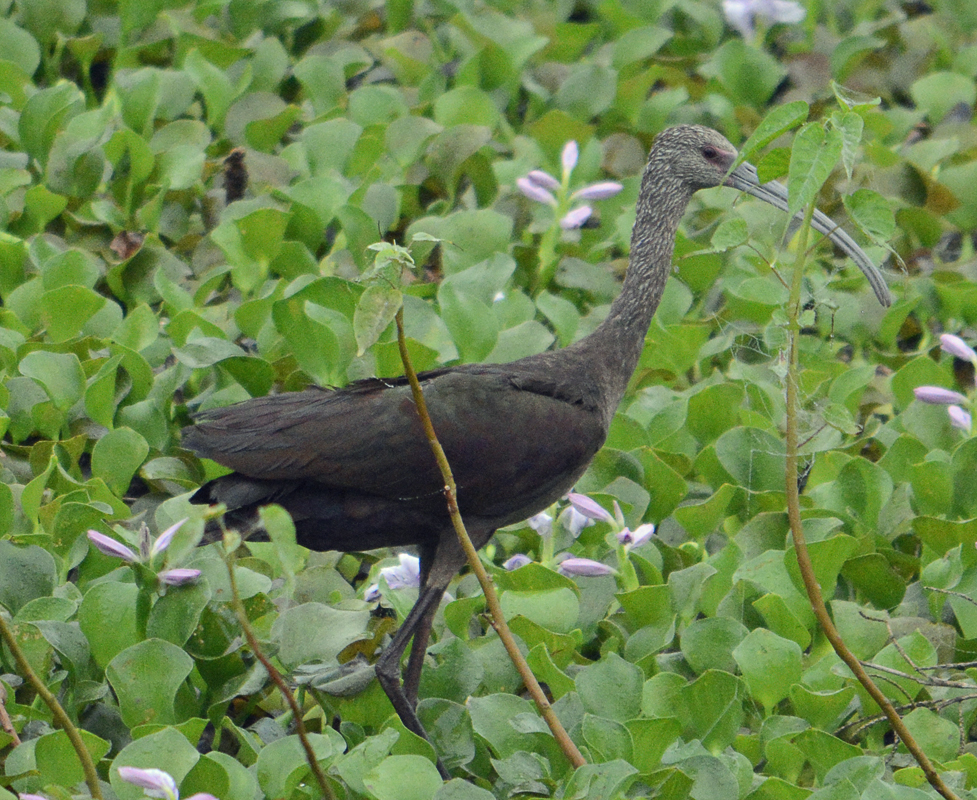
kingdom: Animalia
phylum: Chordata
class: Aves
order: Pelecaniformes
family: Threskiornithidae
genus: Plegadis
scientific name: Plegadis chihi
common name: White-faced ibis
